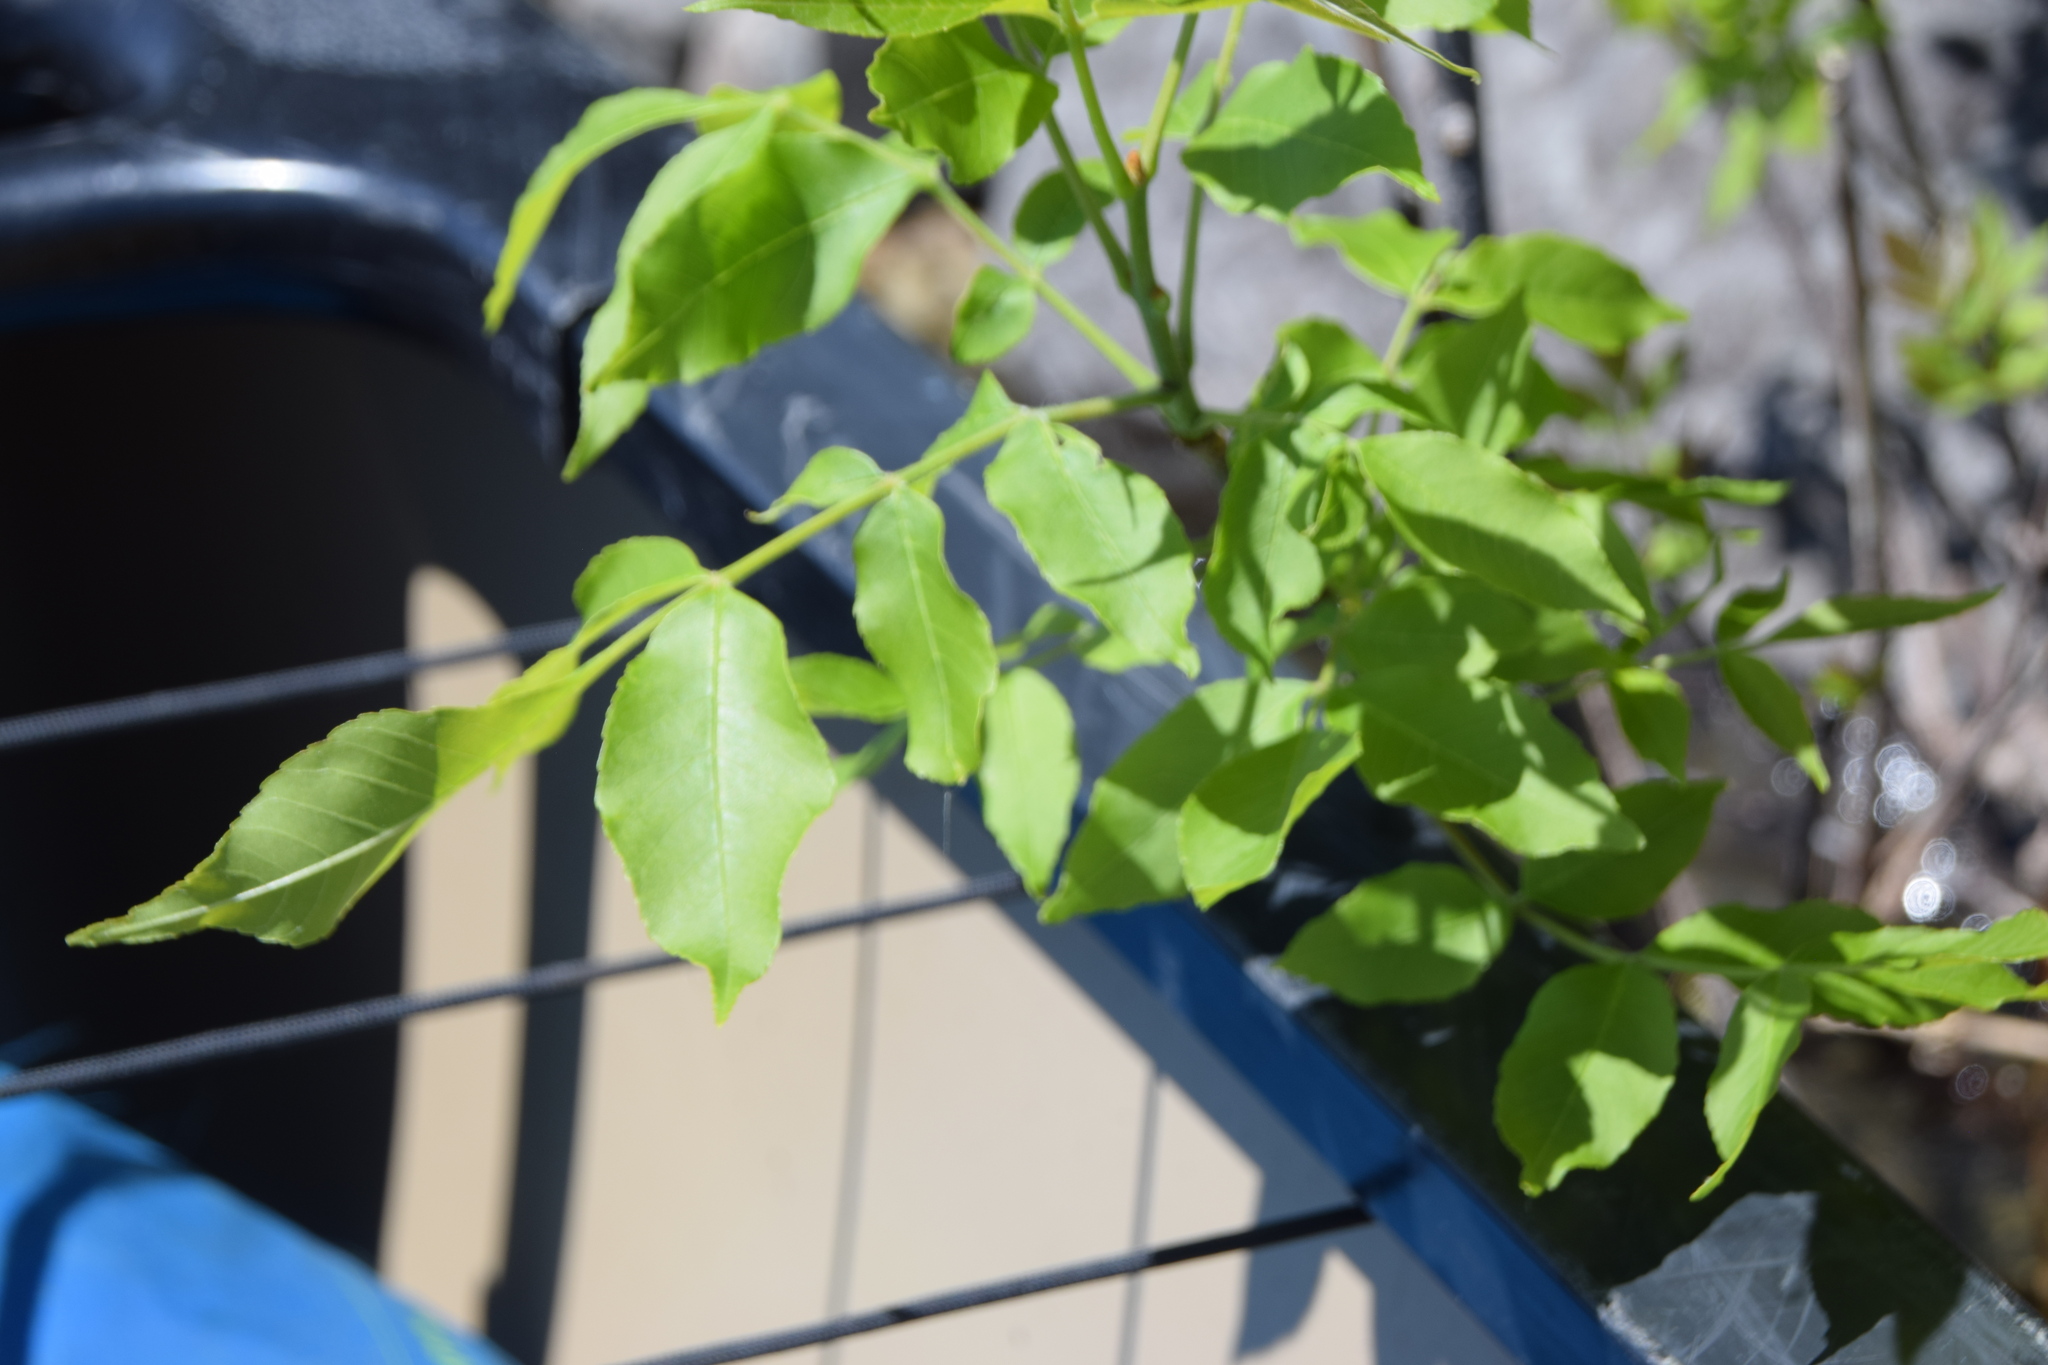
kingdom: Plantae
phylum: Tracheophyta
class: Magnoliopsida
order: Lamiales
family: Oleaceae
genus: Fraxinus
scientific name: Fraxinus pennsylvanica
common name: Green ash
